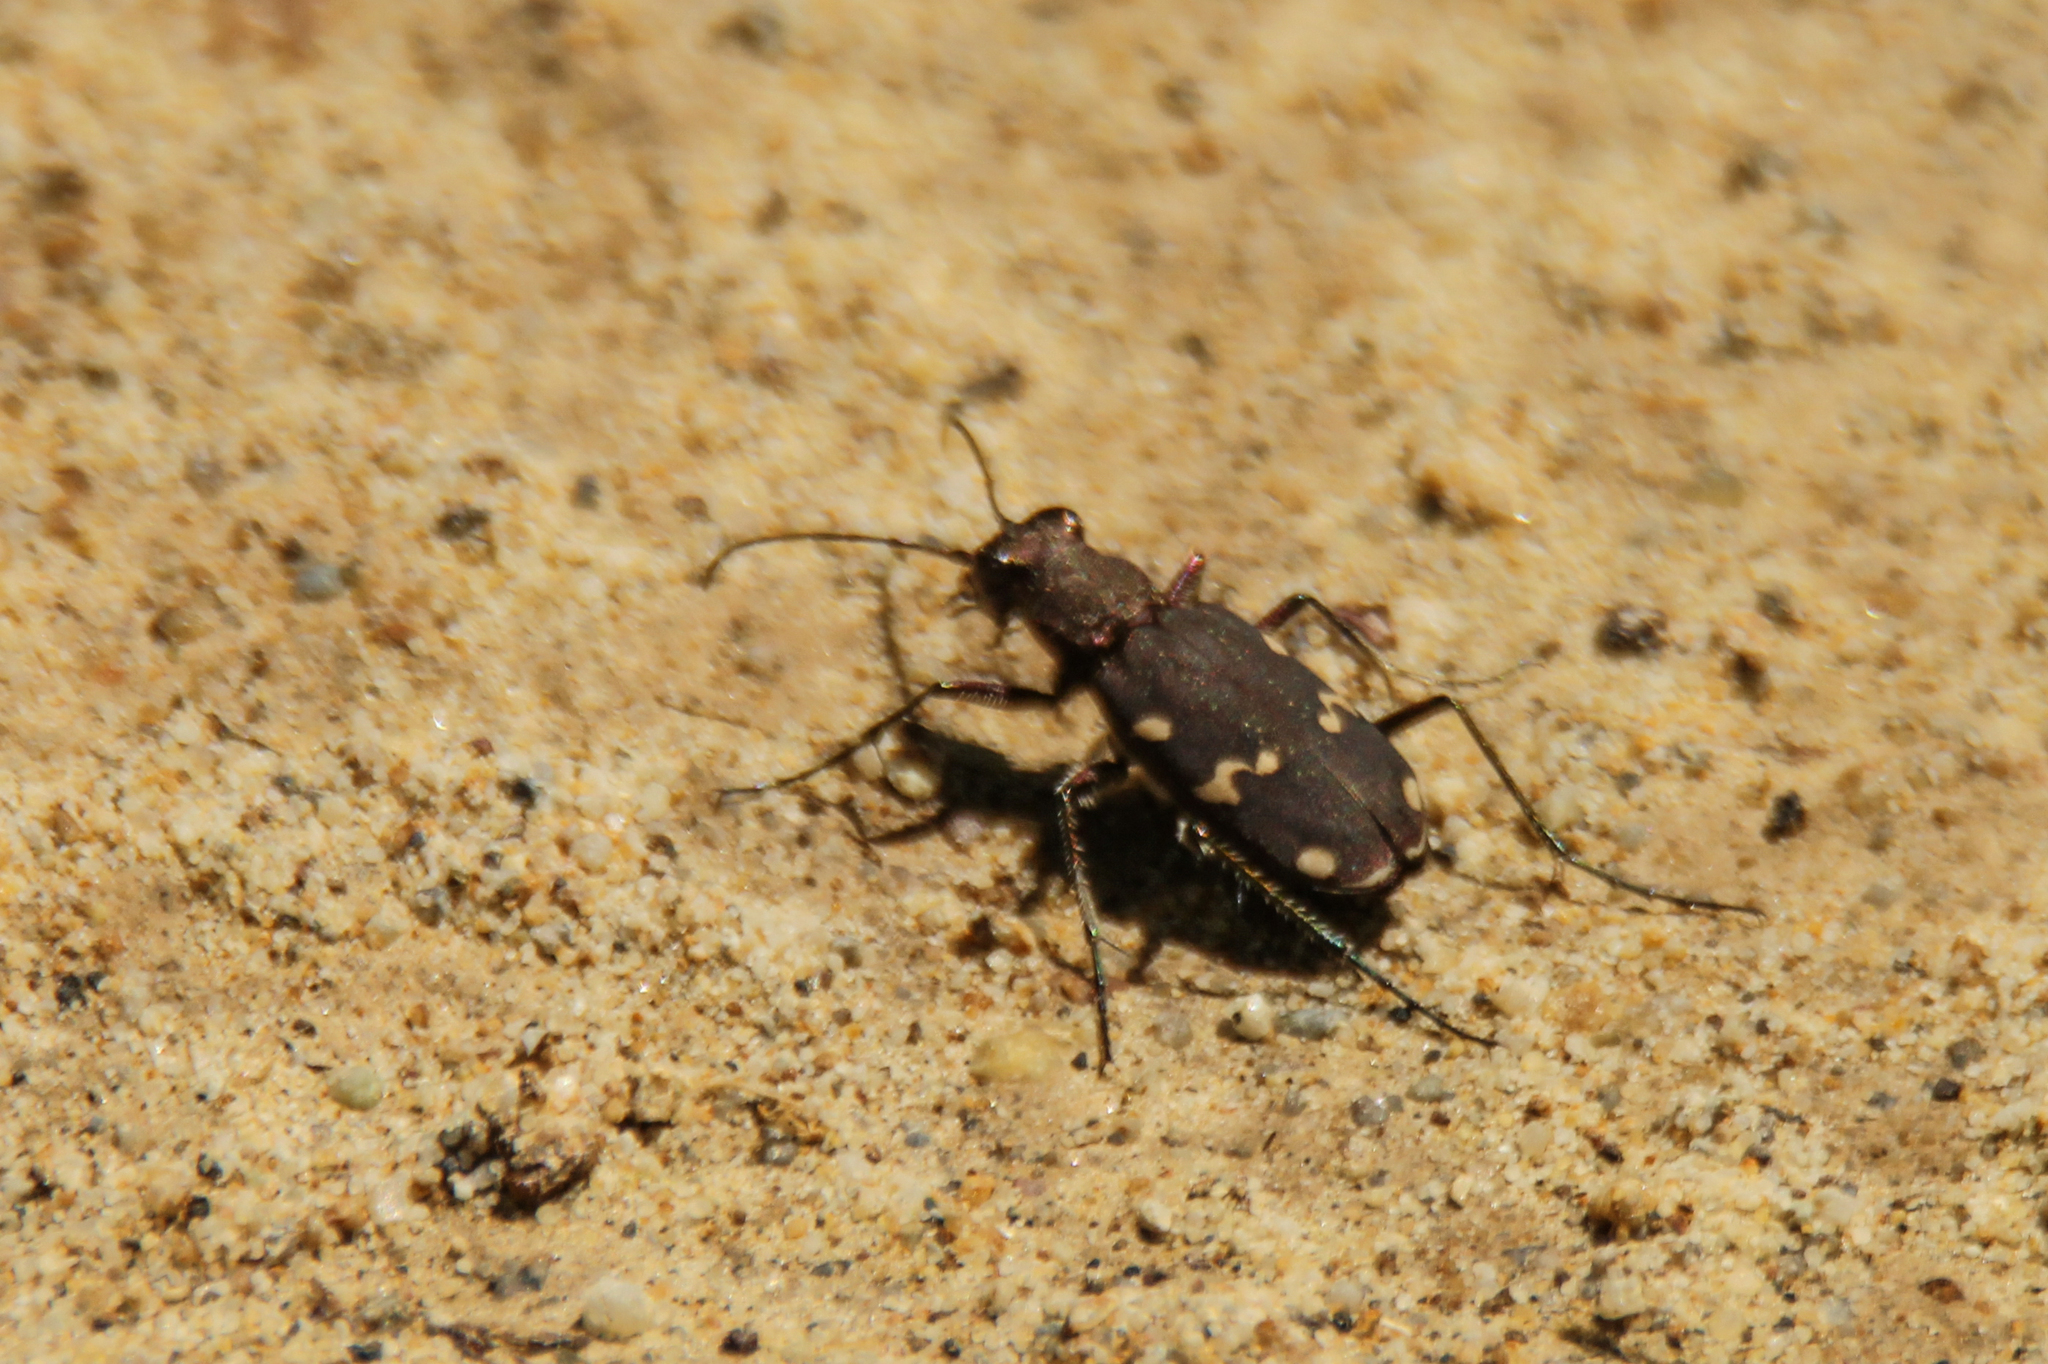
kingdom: Animalia
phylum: Arthropoda
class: Insecta
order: Coleoptera
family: Carabidae
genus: Cicindela
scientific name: Cicindela gemmata
